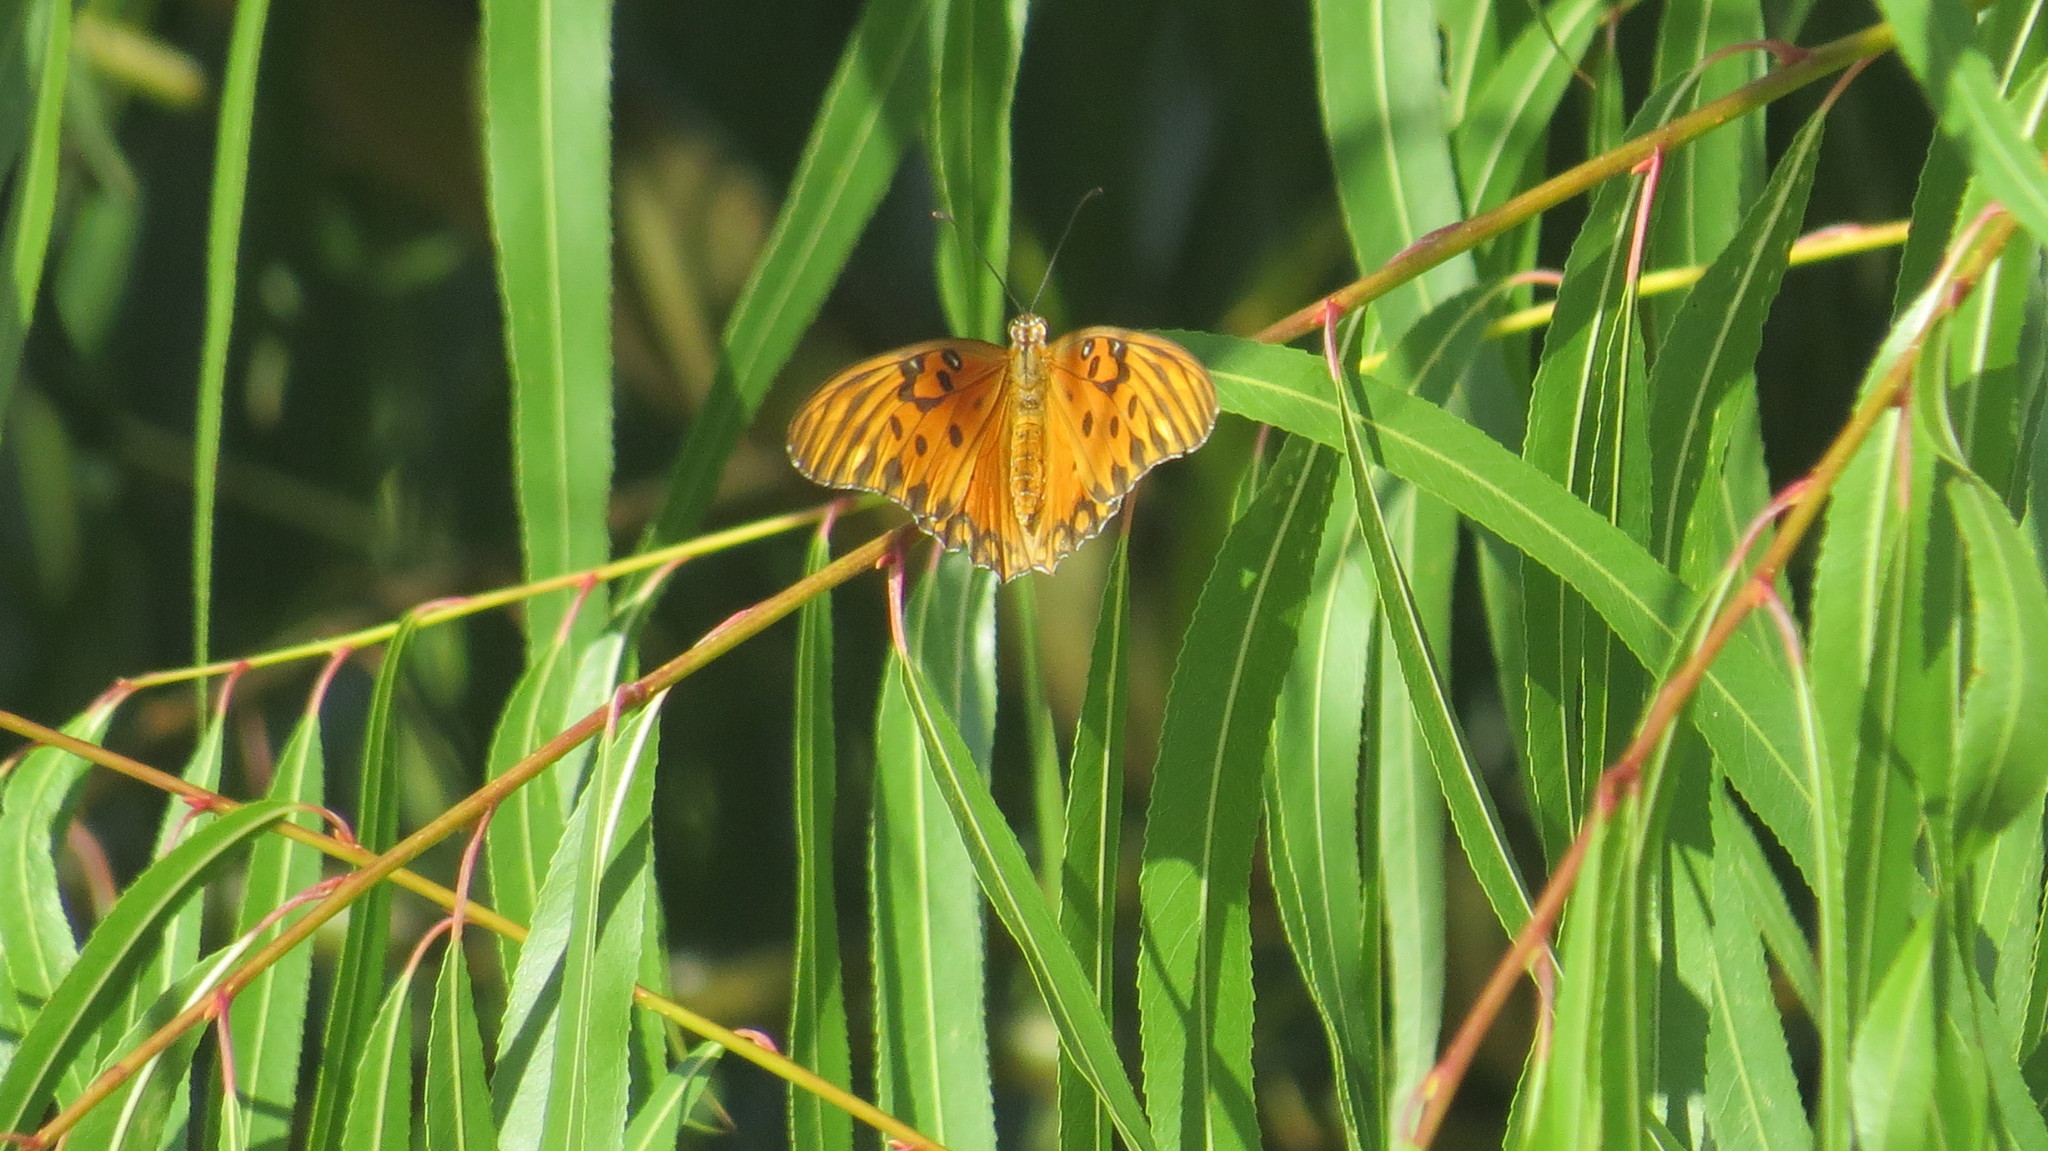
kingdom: Animalia
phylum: Arthropoda
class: Insecta
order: Lepidoptera
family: Nymphalidae
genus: Dione
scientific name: Dione vanillae
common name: Gulf fritillary
